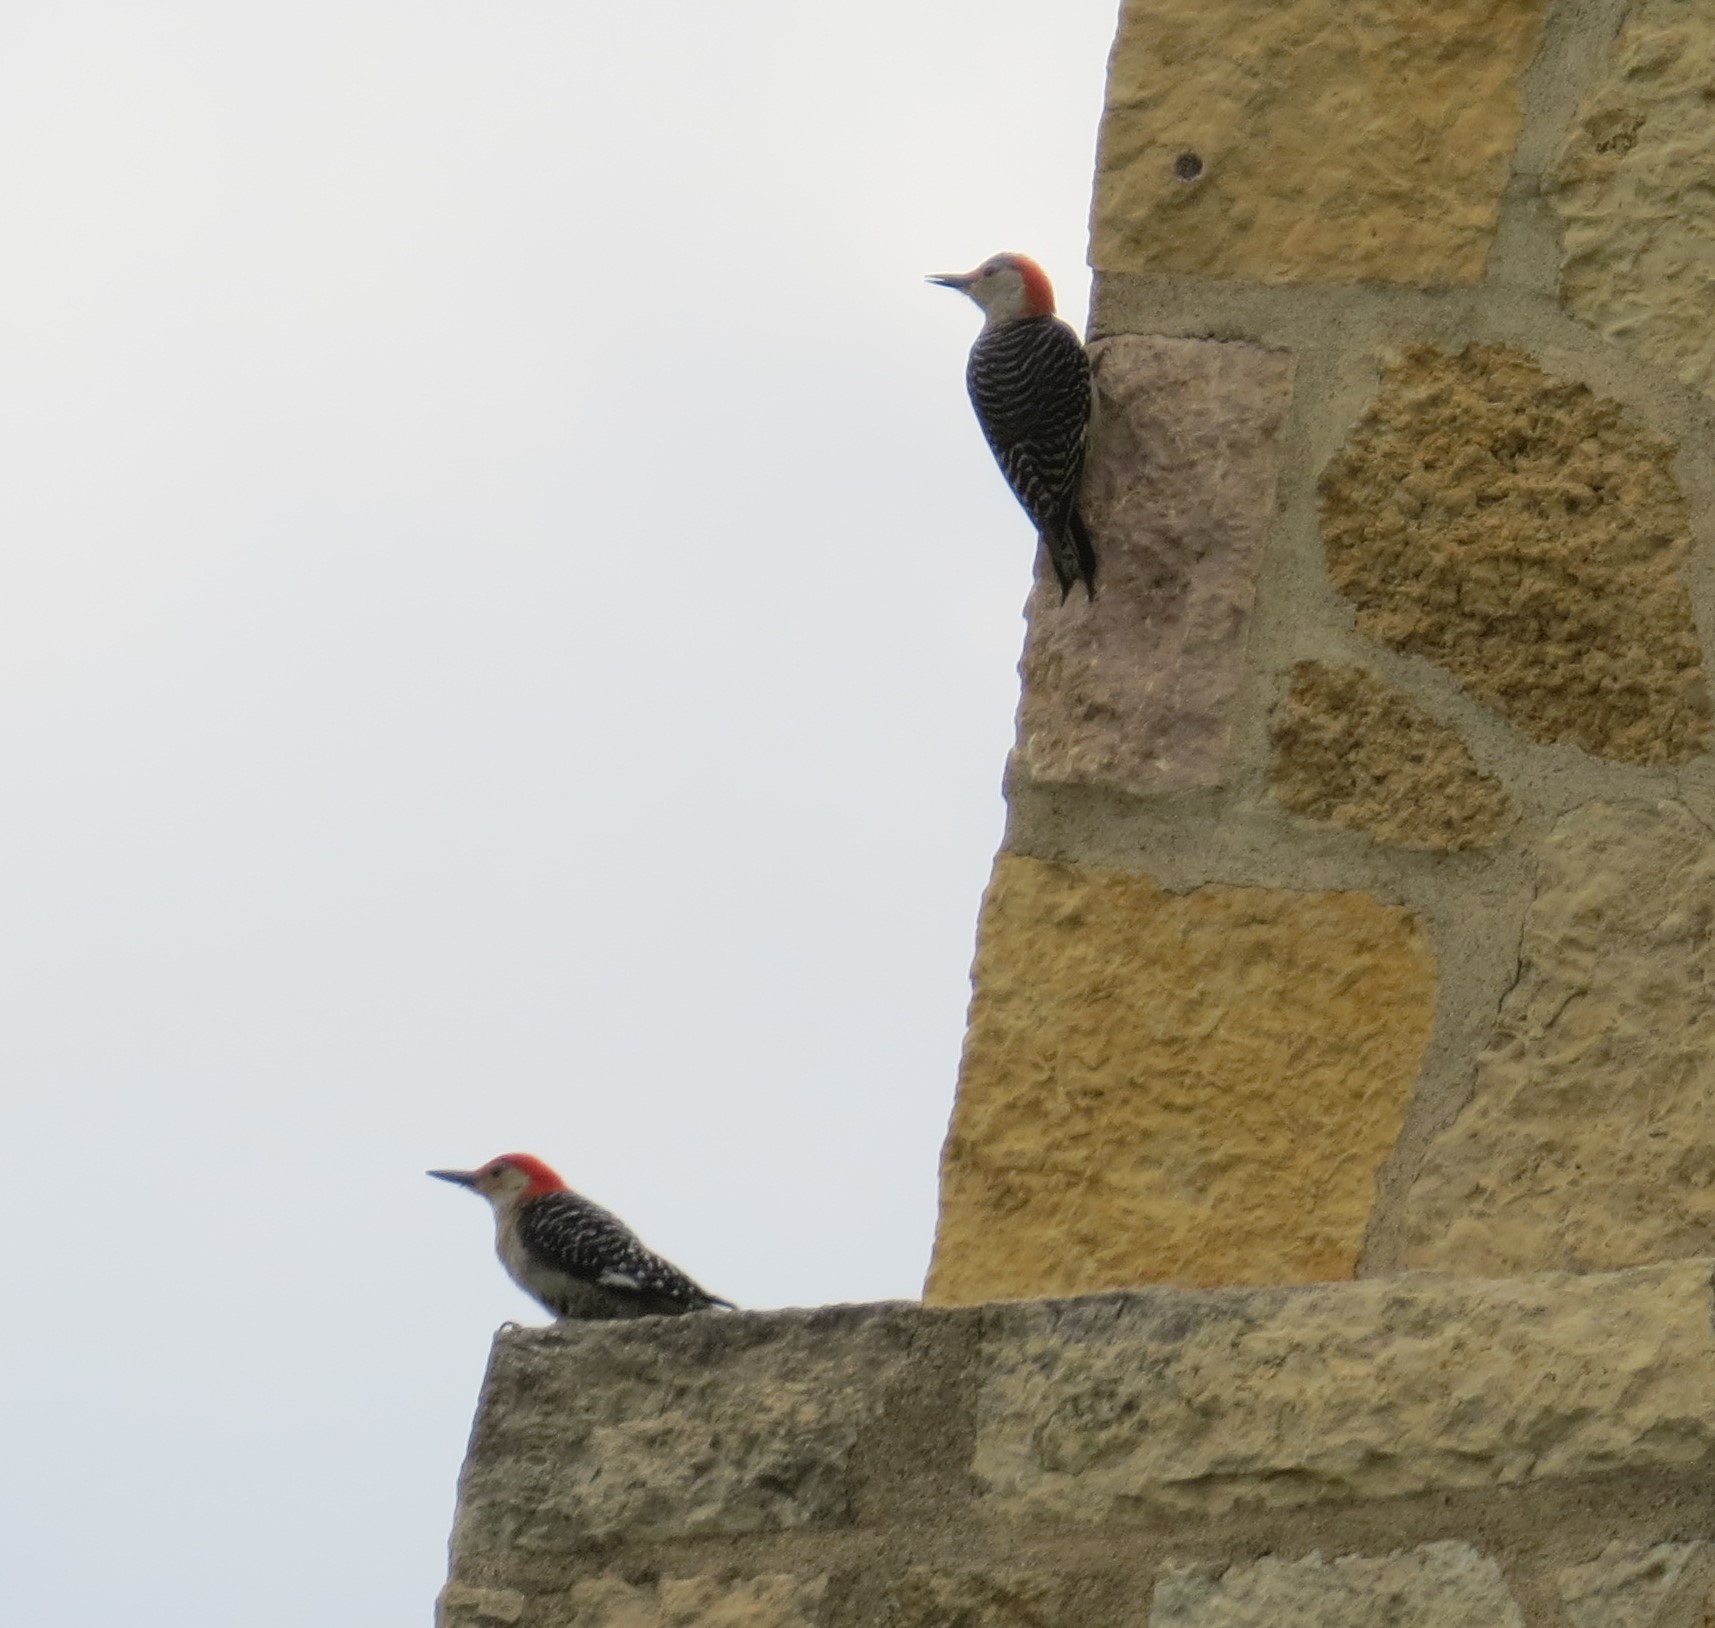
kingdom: Animalia
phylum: Chordata
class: Aves
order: Piciformes
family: Picidae
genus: Melanerpes
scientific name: Melanerpes carolinus
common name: Red-bellied woodpecker
